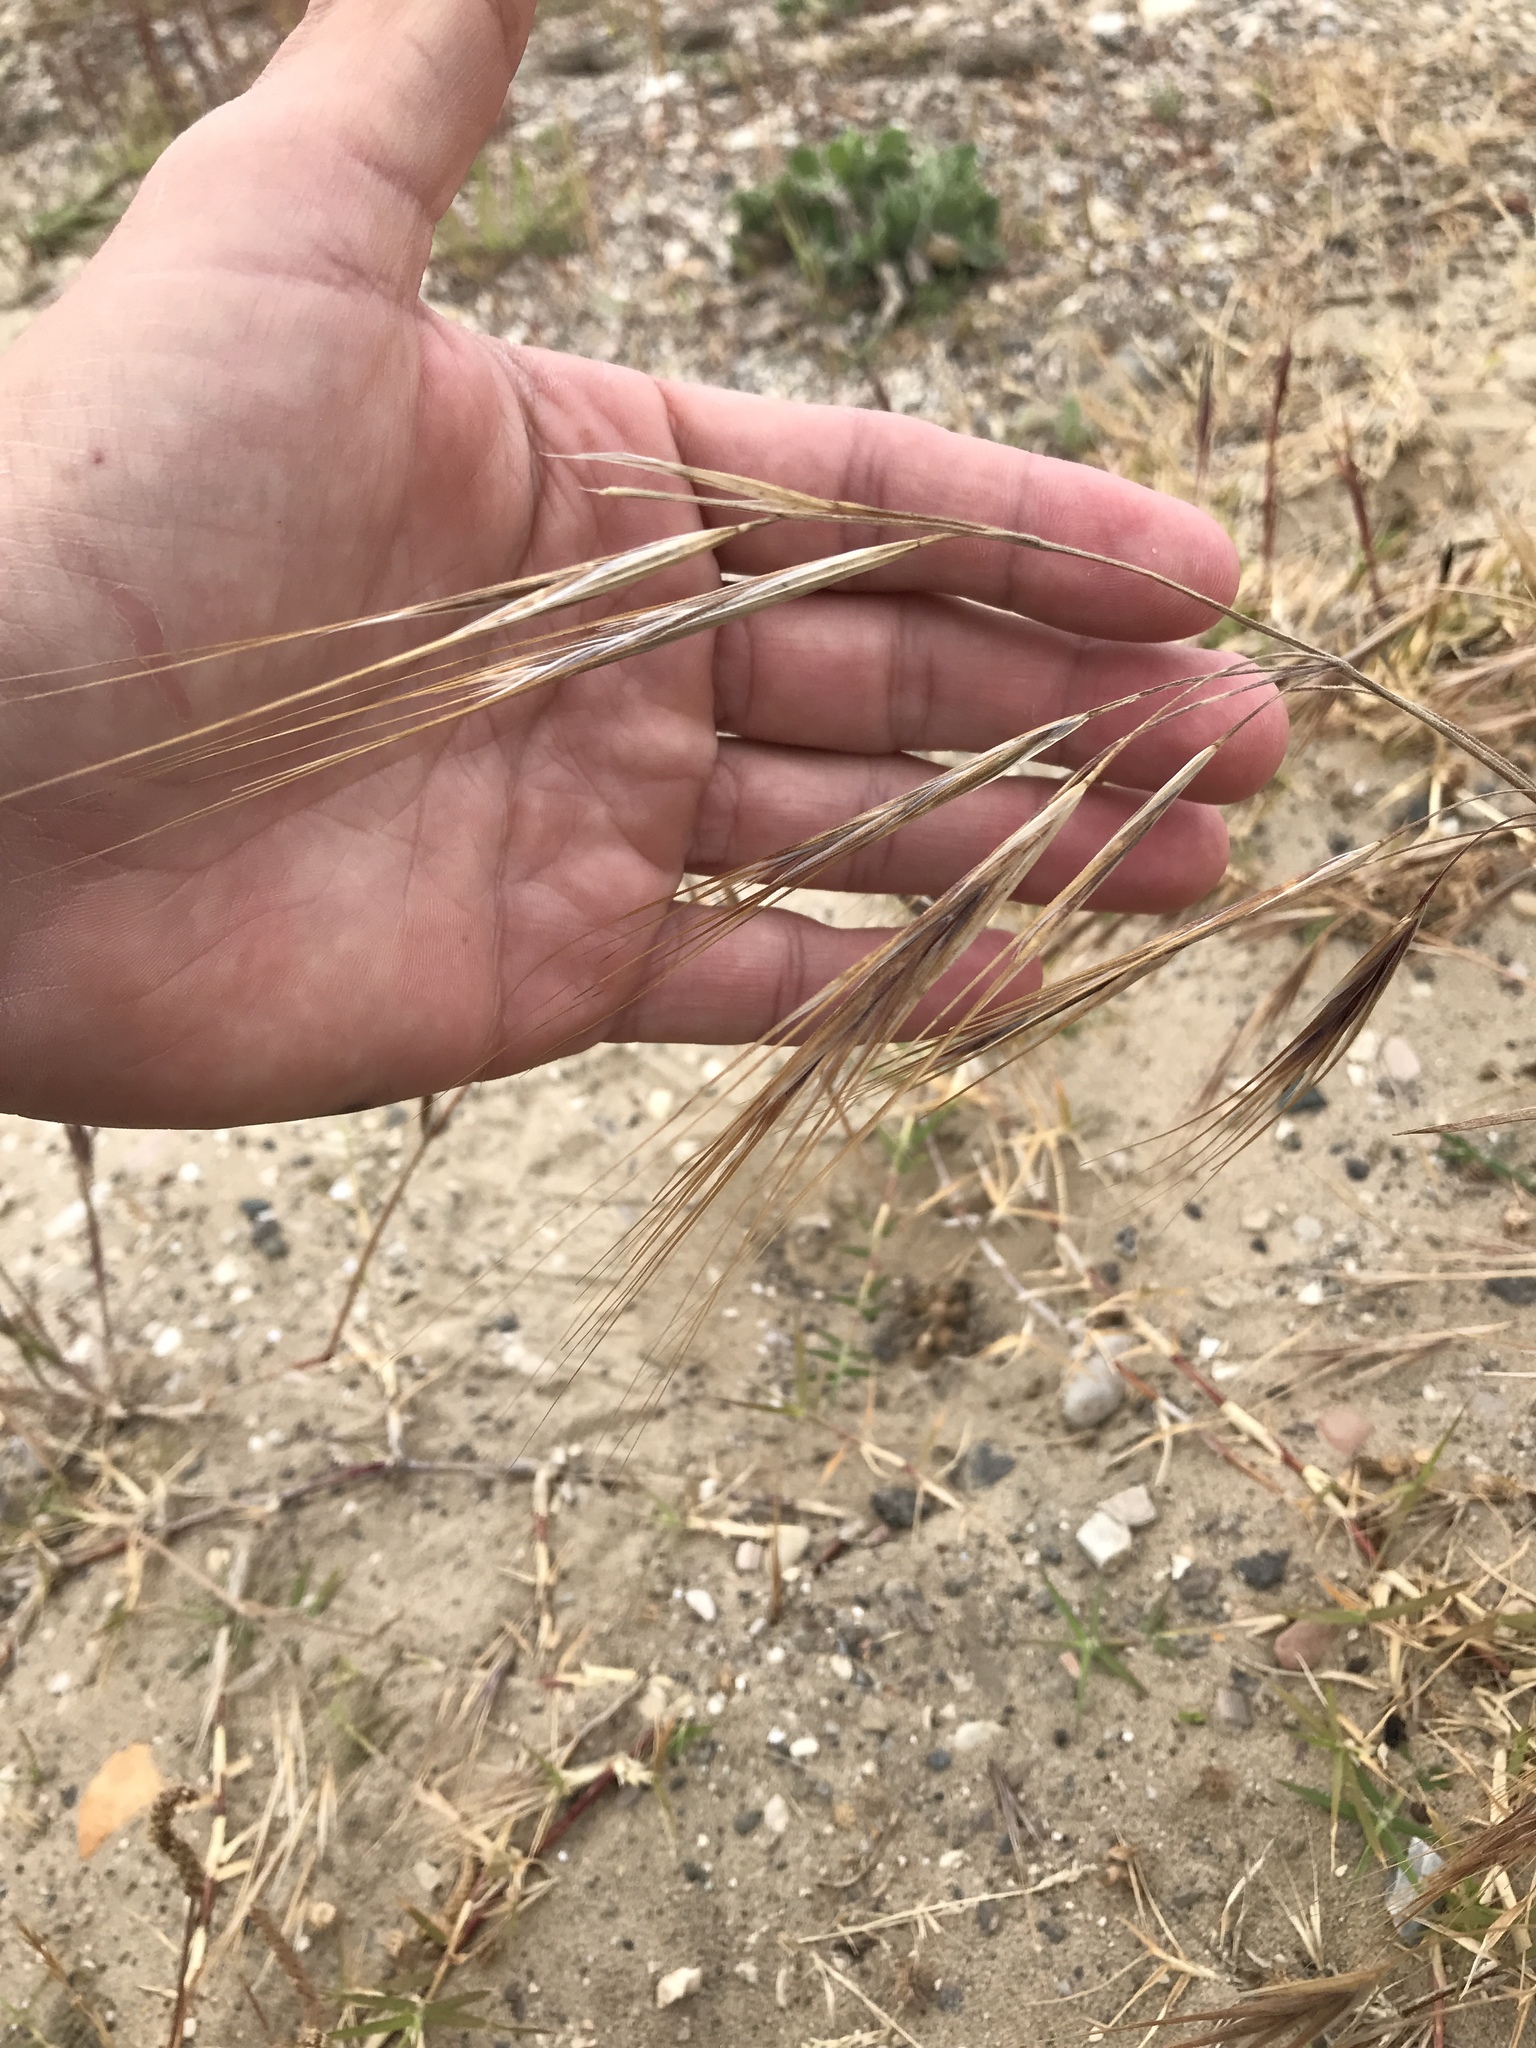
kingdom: Plantae
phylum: Tracheophyta
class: Liliopsida
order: Poales
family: Poaceae
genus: Bromus
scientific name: Bromus diandrus
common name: Ripgut brome
